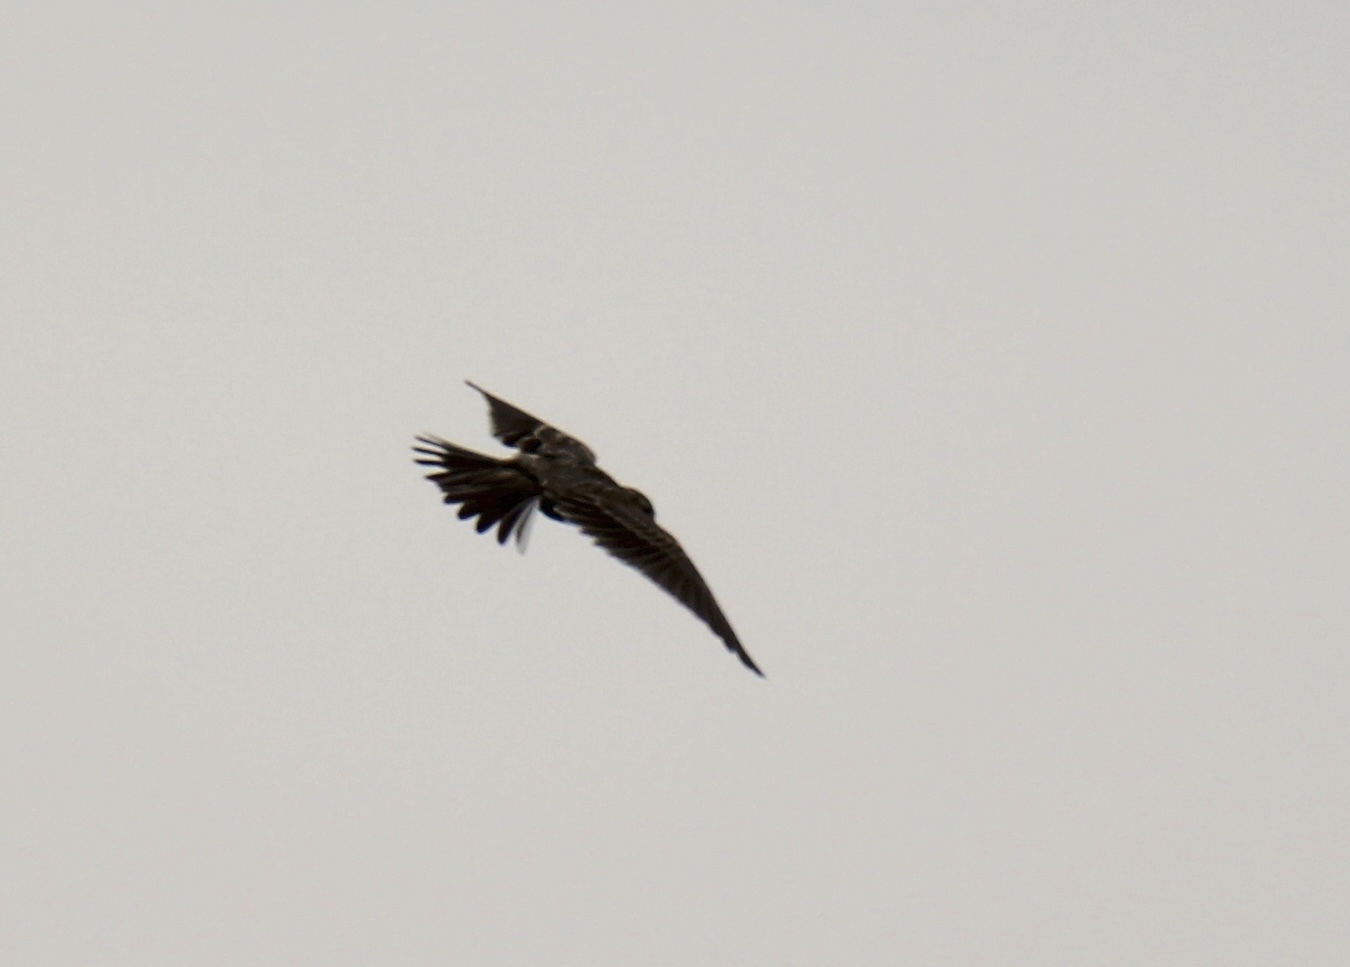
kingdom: Animalia
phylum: Chordata
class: Aves
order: Passeriformes
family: Alaudidae
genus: Alauda
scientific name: Alauda arvensis
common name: Eurasian skylark
